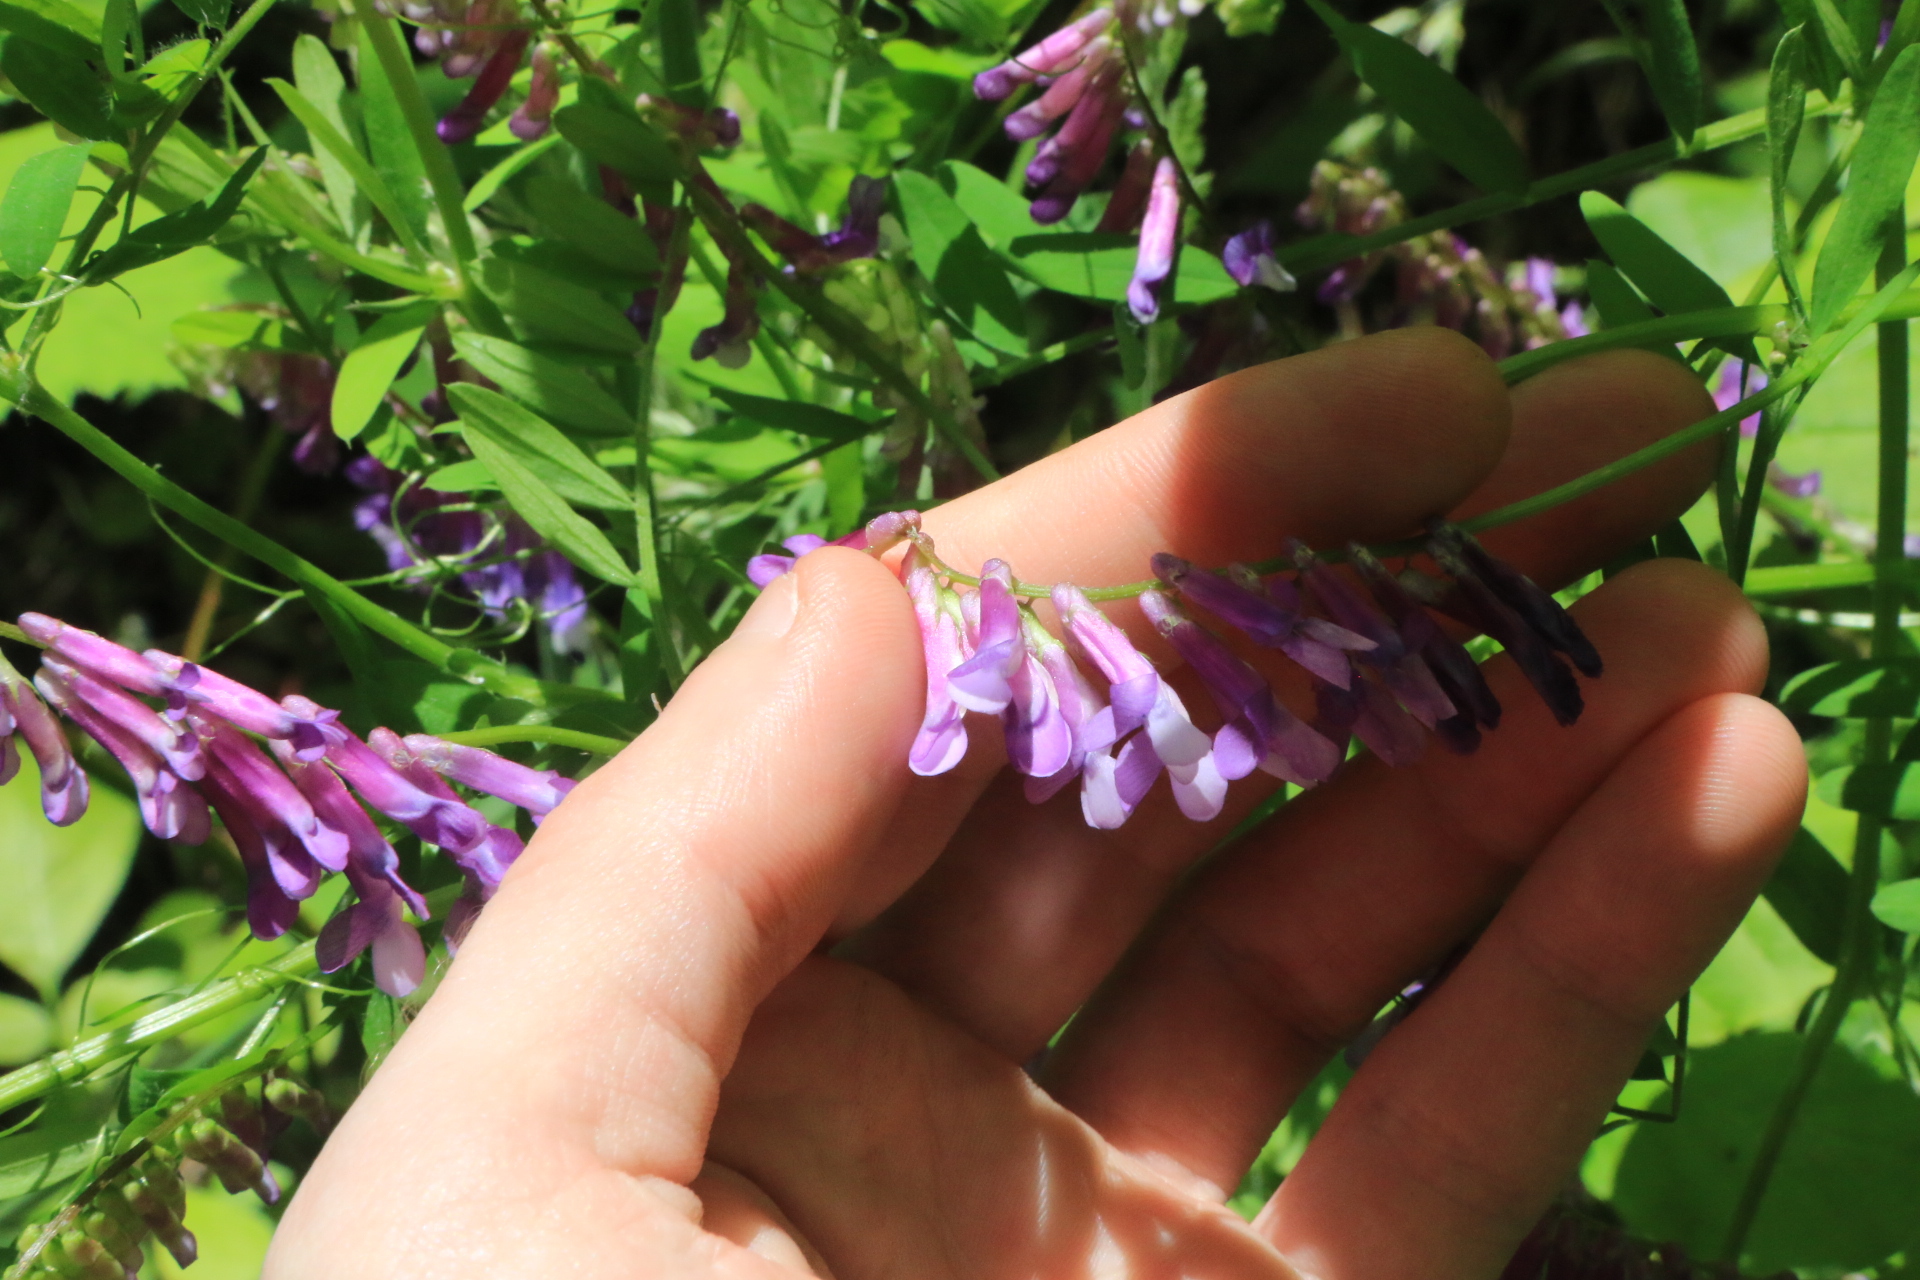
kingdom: Plantae
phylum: Tracheophyta
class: Magnoliopsida
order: Fabales
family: Fabaceae
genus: Vicia
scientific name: Vicia villosa
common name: Fodder vetch
